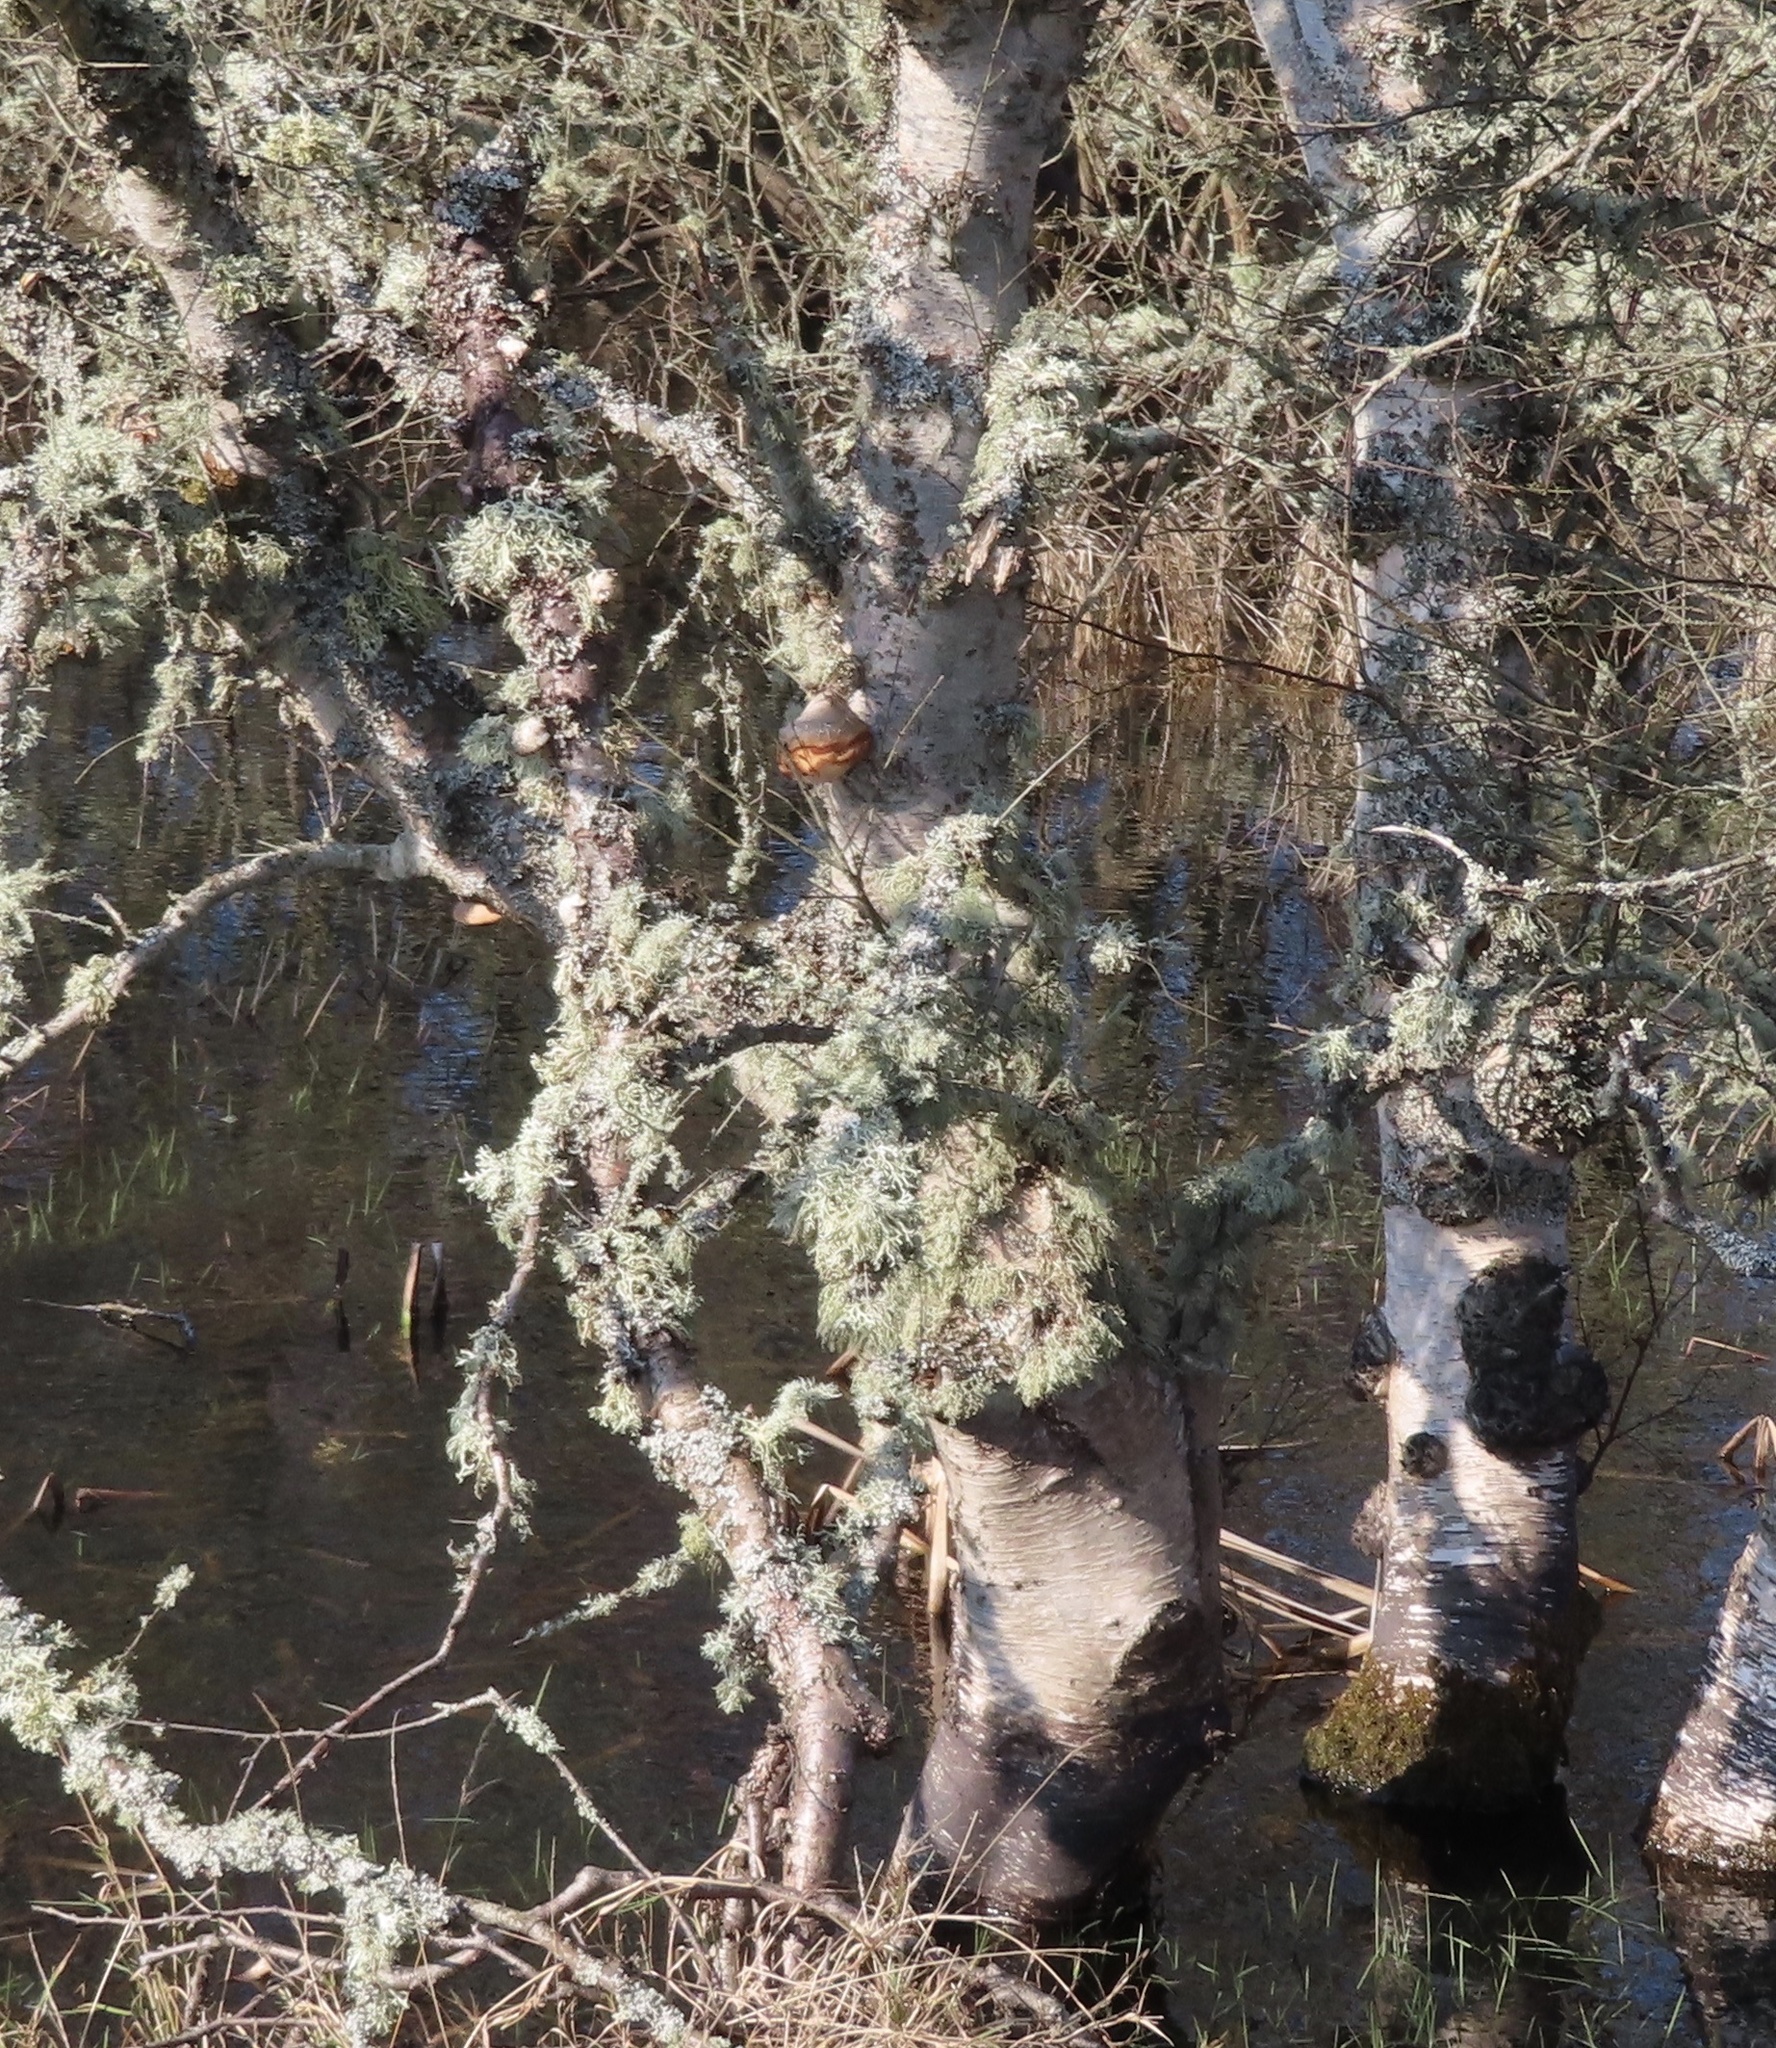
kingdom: Fungi
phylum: Basidiomycota
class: Agaricomycetes
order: Polyporales
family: Fomitopsidaceae
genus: Fomitopsis
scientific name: Fomitopsis betulina
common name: Birch polypore
